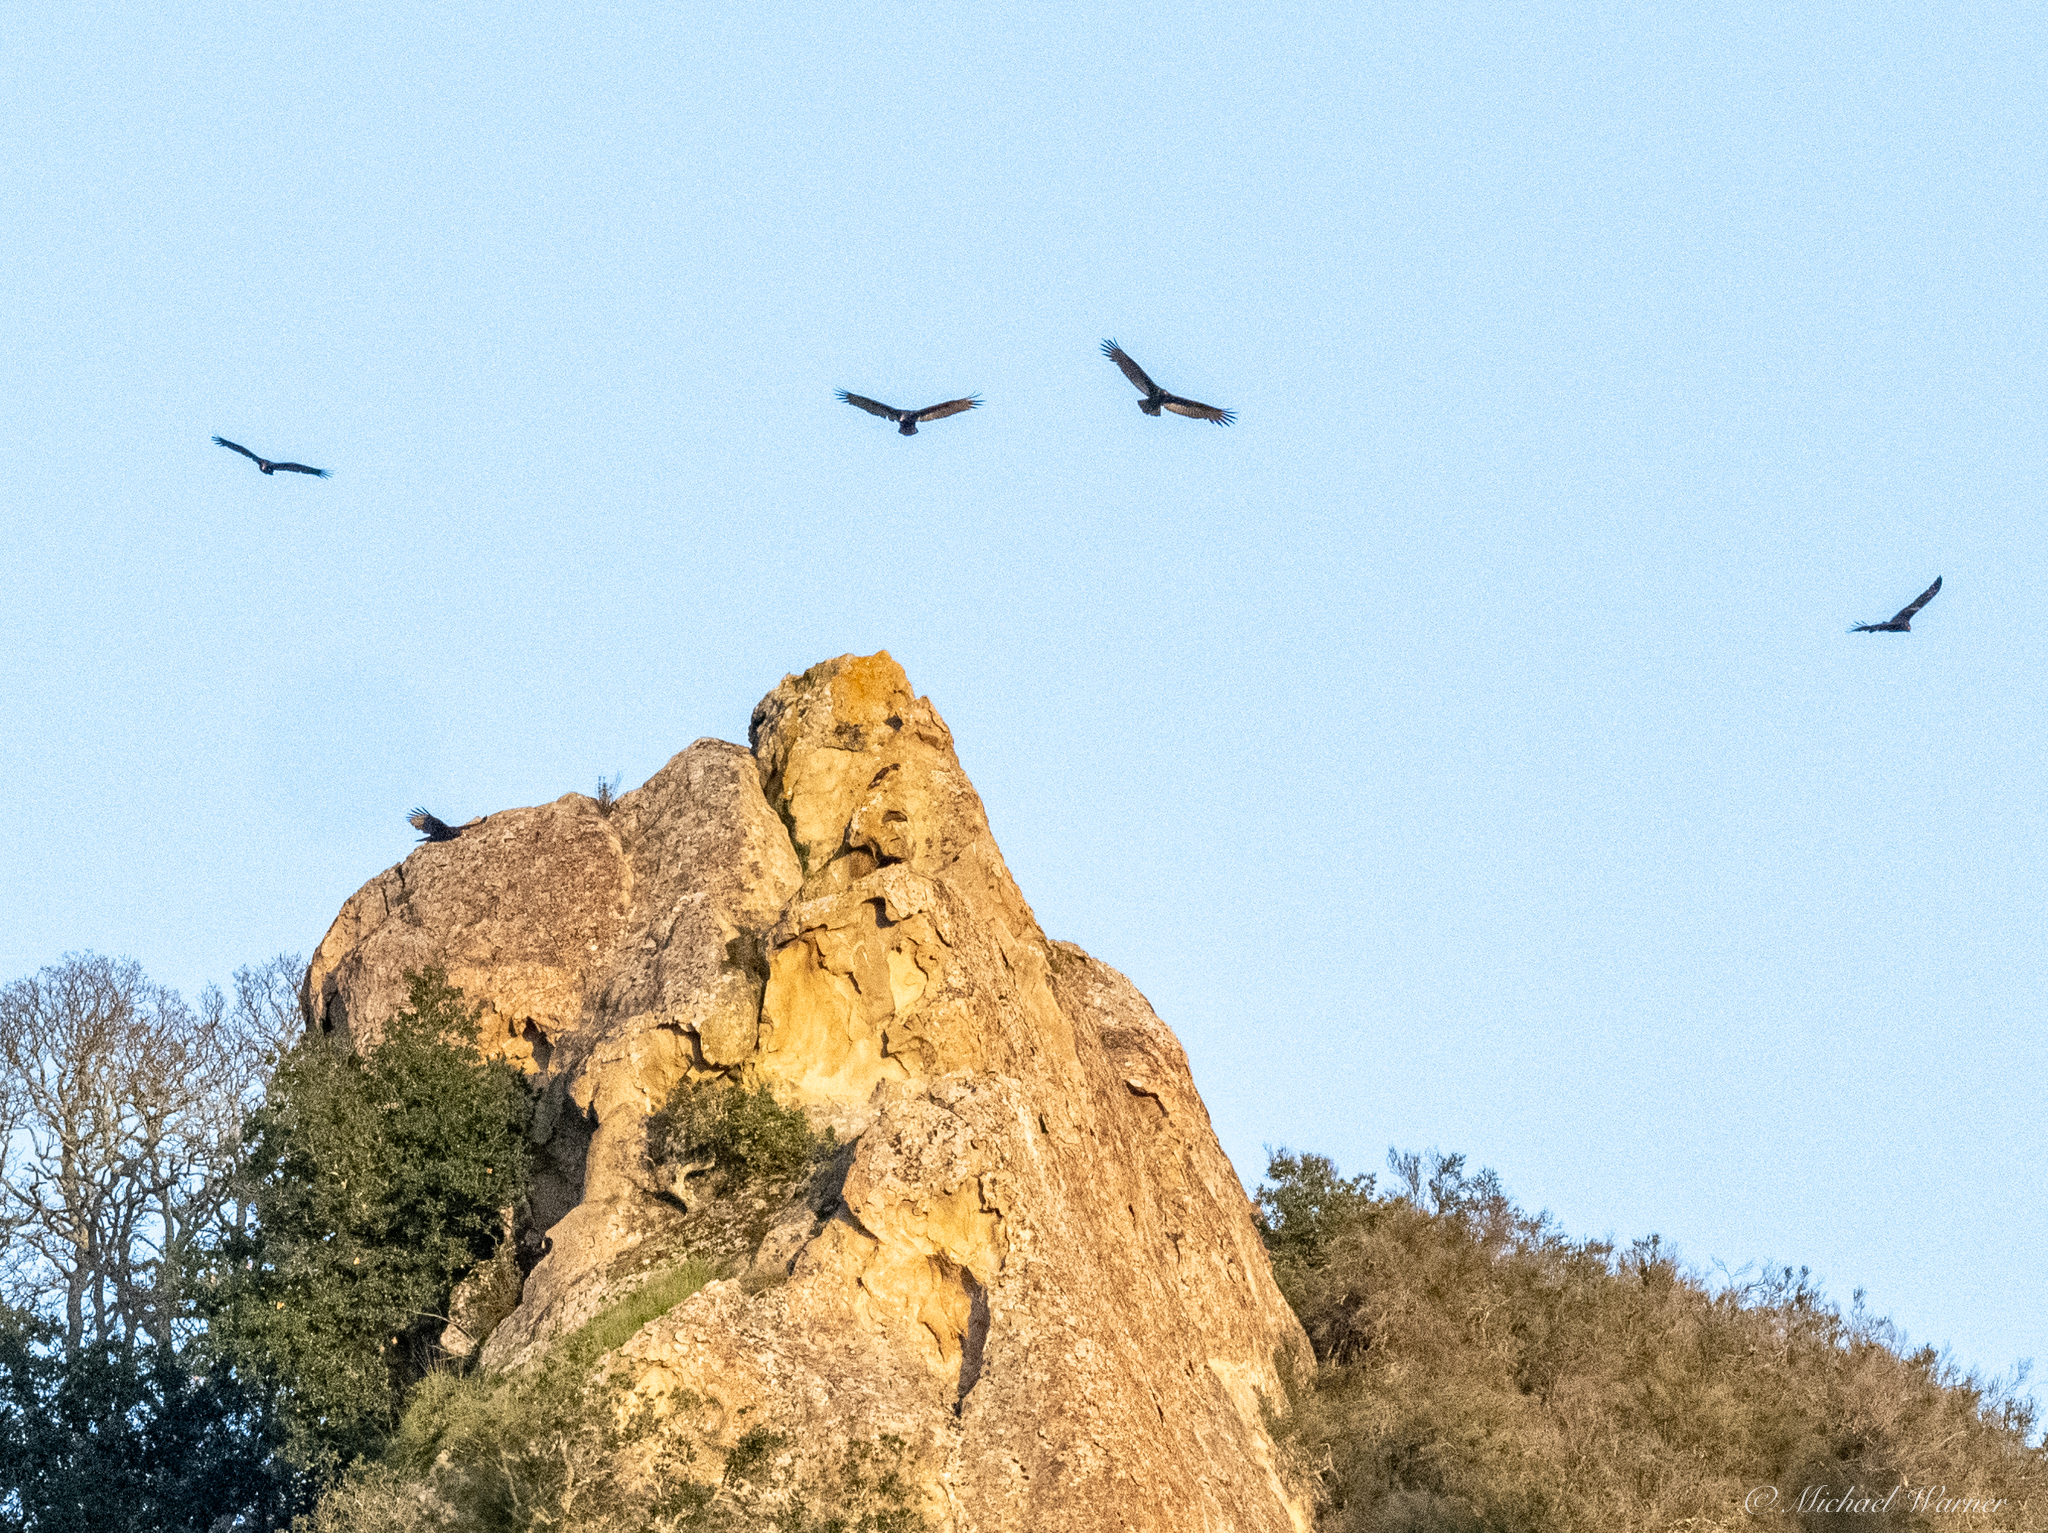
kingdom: Animalia
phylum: Chordata
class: Aves
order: Accipitriformes
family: Cathartidae
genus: Cathartes
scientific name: Cathartes aura
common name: Turkey vulture
